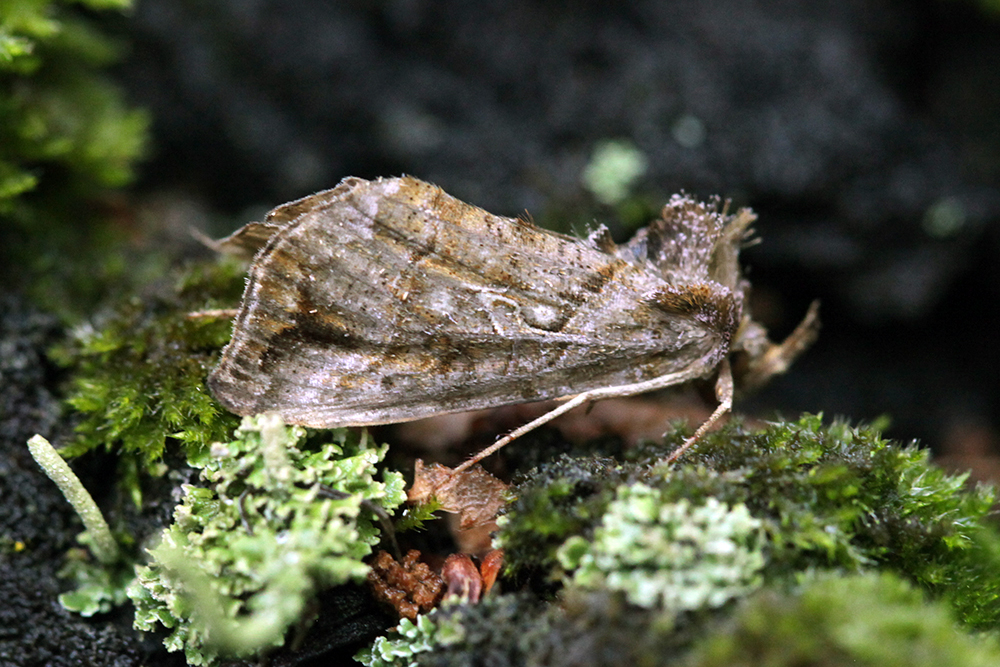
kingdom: Animalia
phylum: Arthropoda
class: Insecta
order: Lepidoptera
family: Noctuidae
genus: Polychrysia
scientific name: Polychrysia splendida
